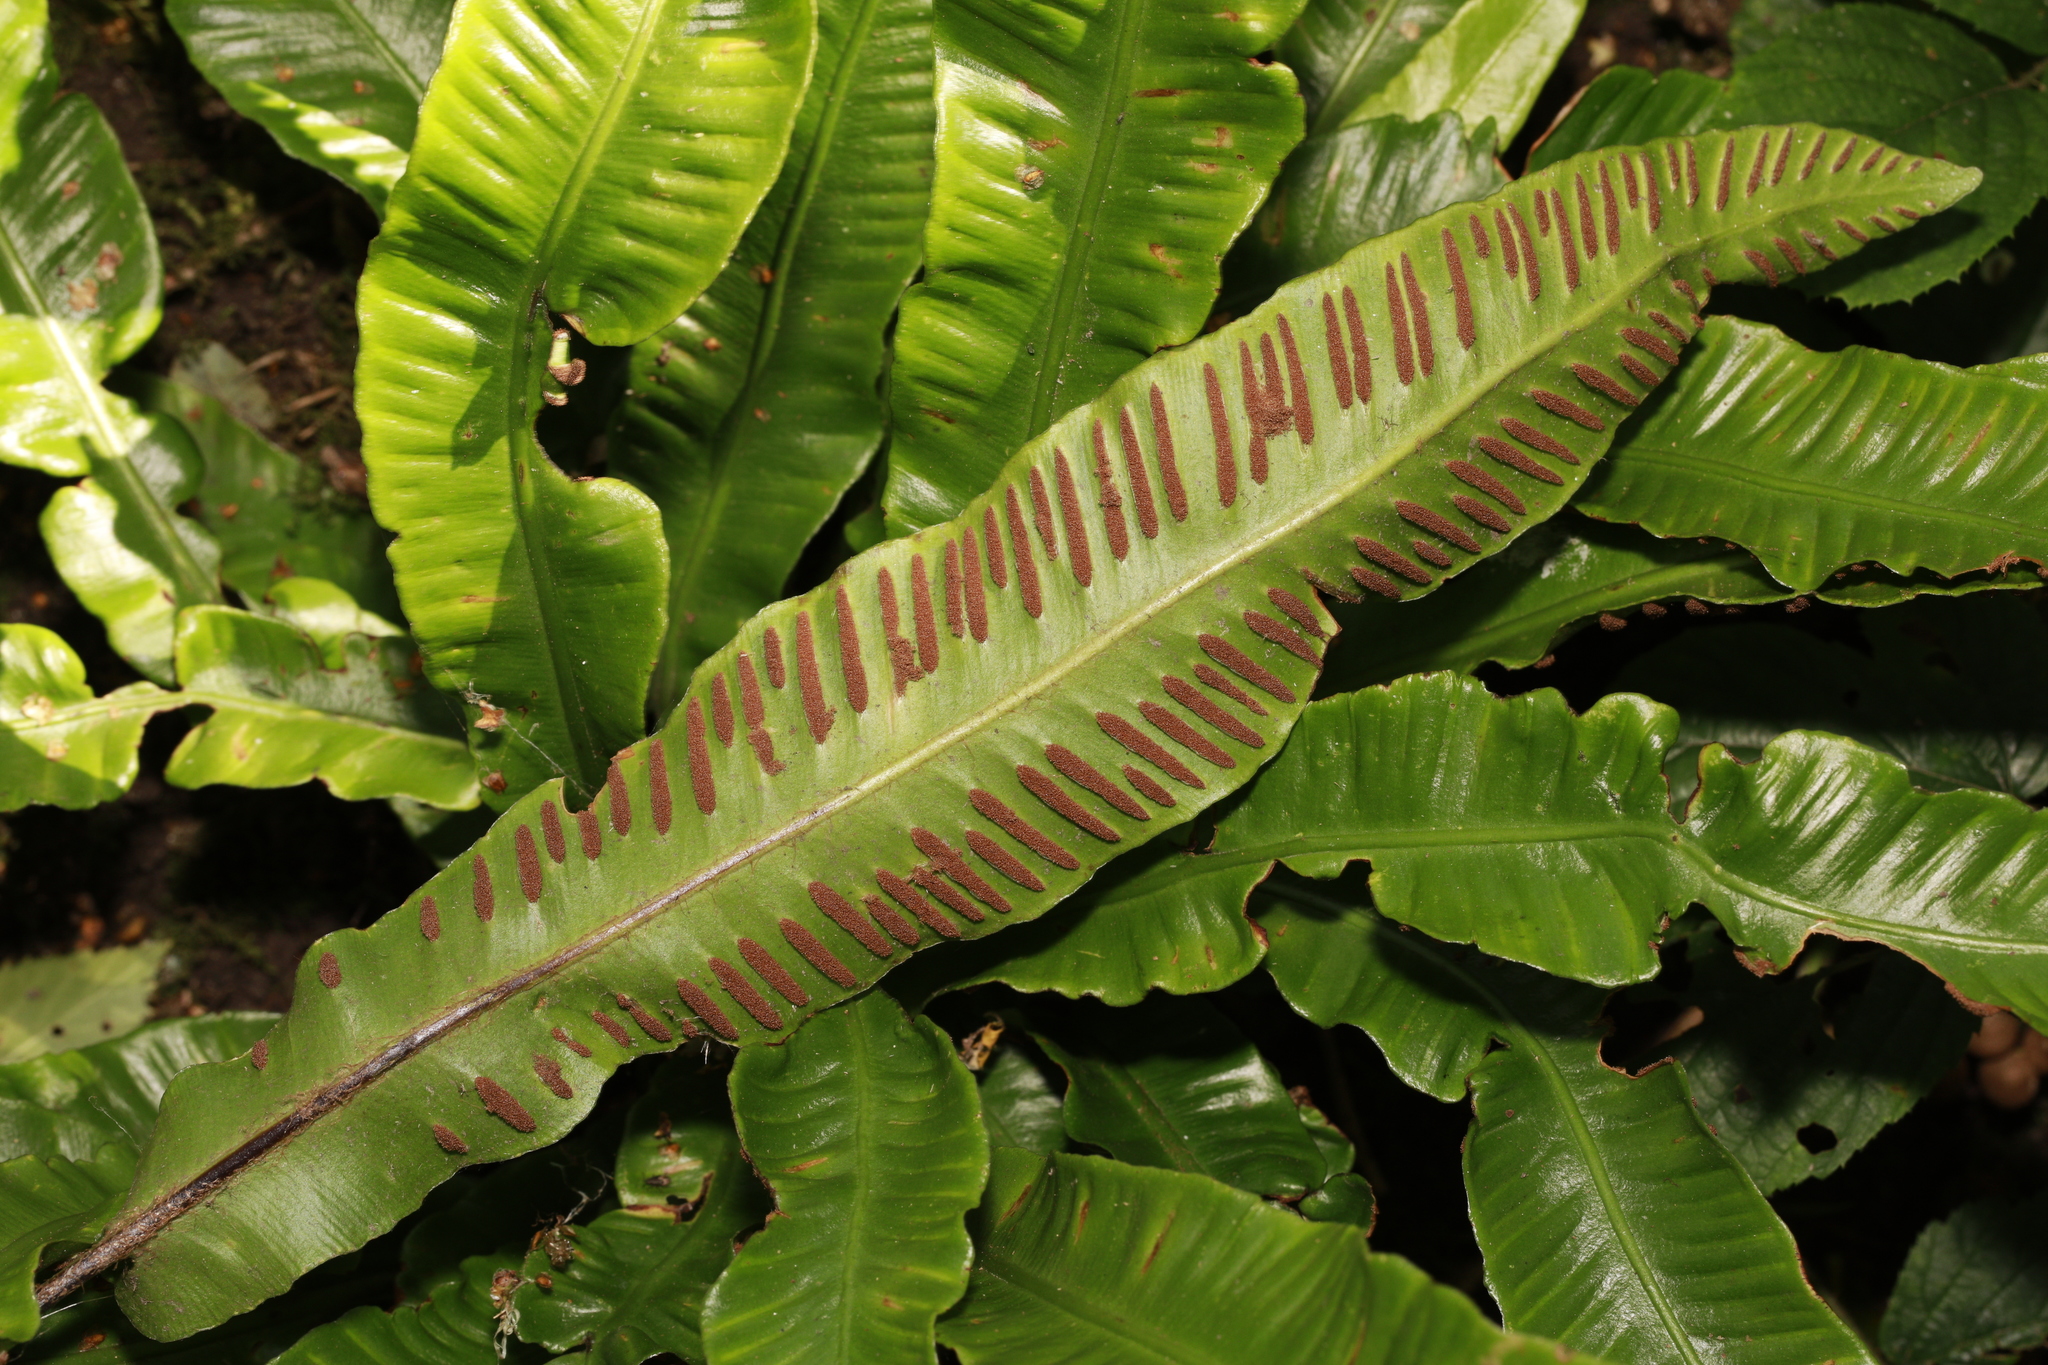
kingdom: Plantae
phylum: Tracheophyta
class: Polypodiopsida
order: Polypodiales
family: Aspleniaceae
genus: Asplenium
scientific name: Asplenium scolopendrium
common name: Hart's-tongue fern
